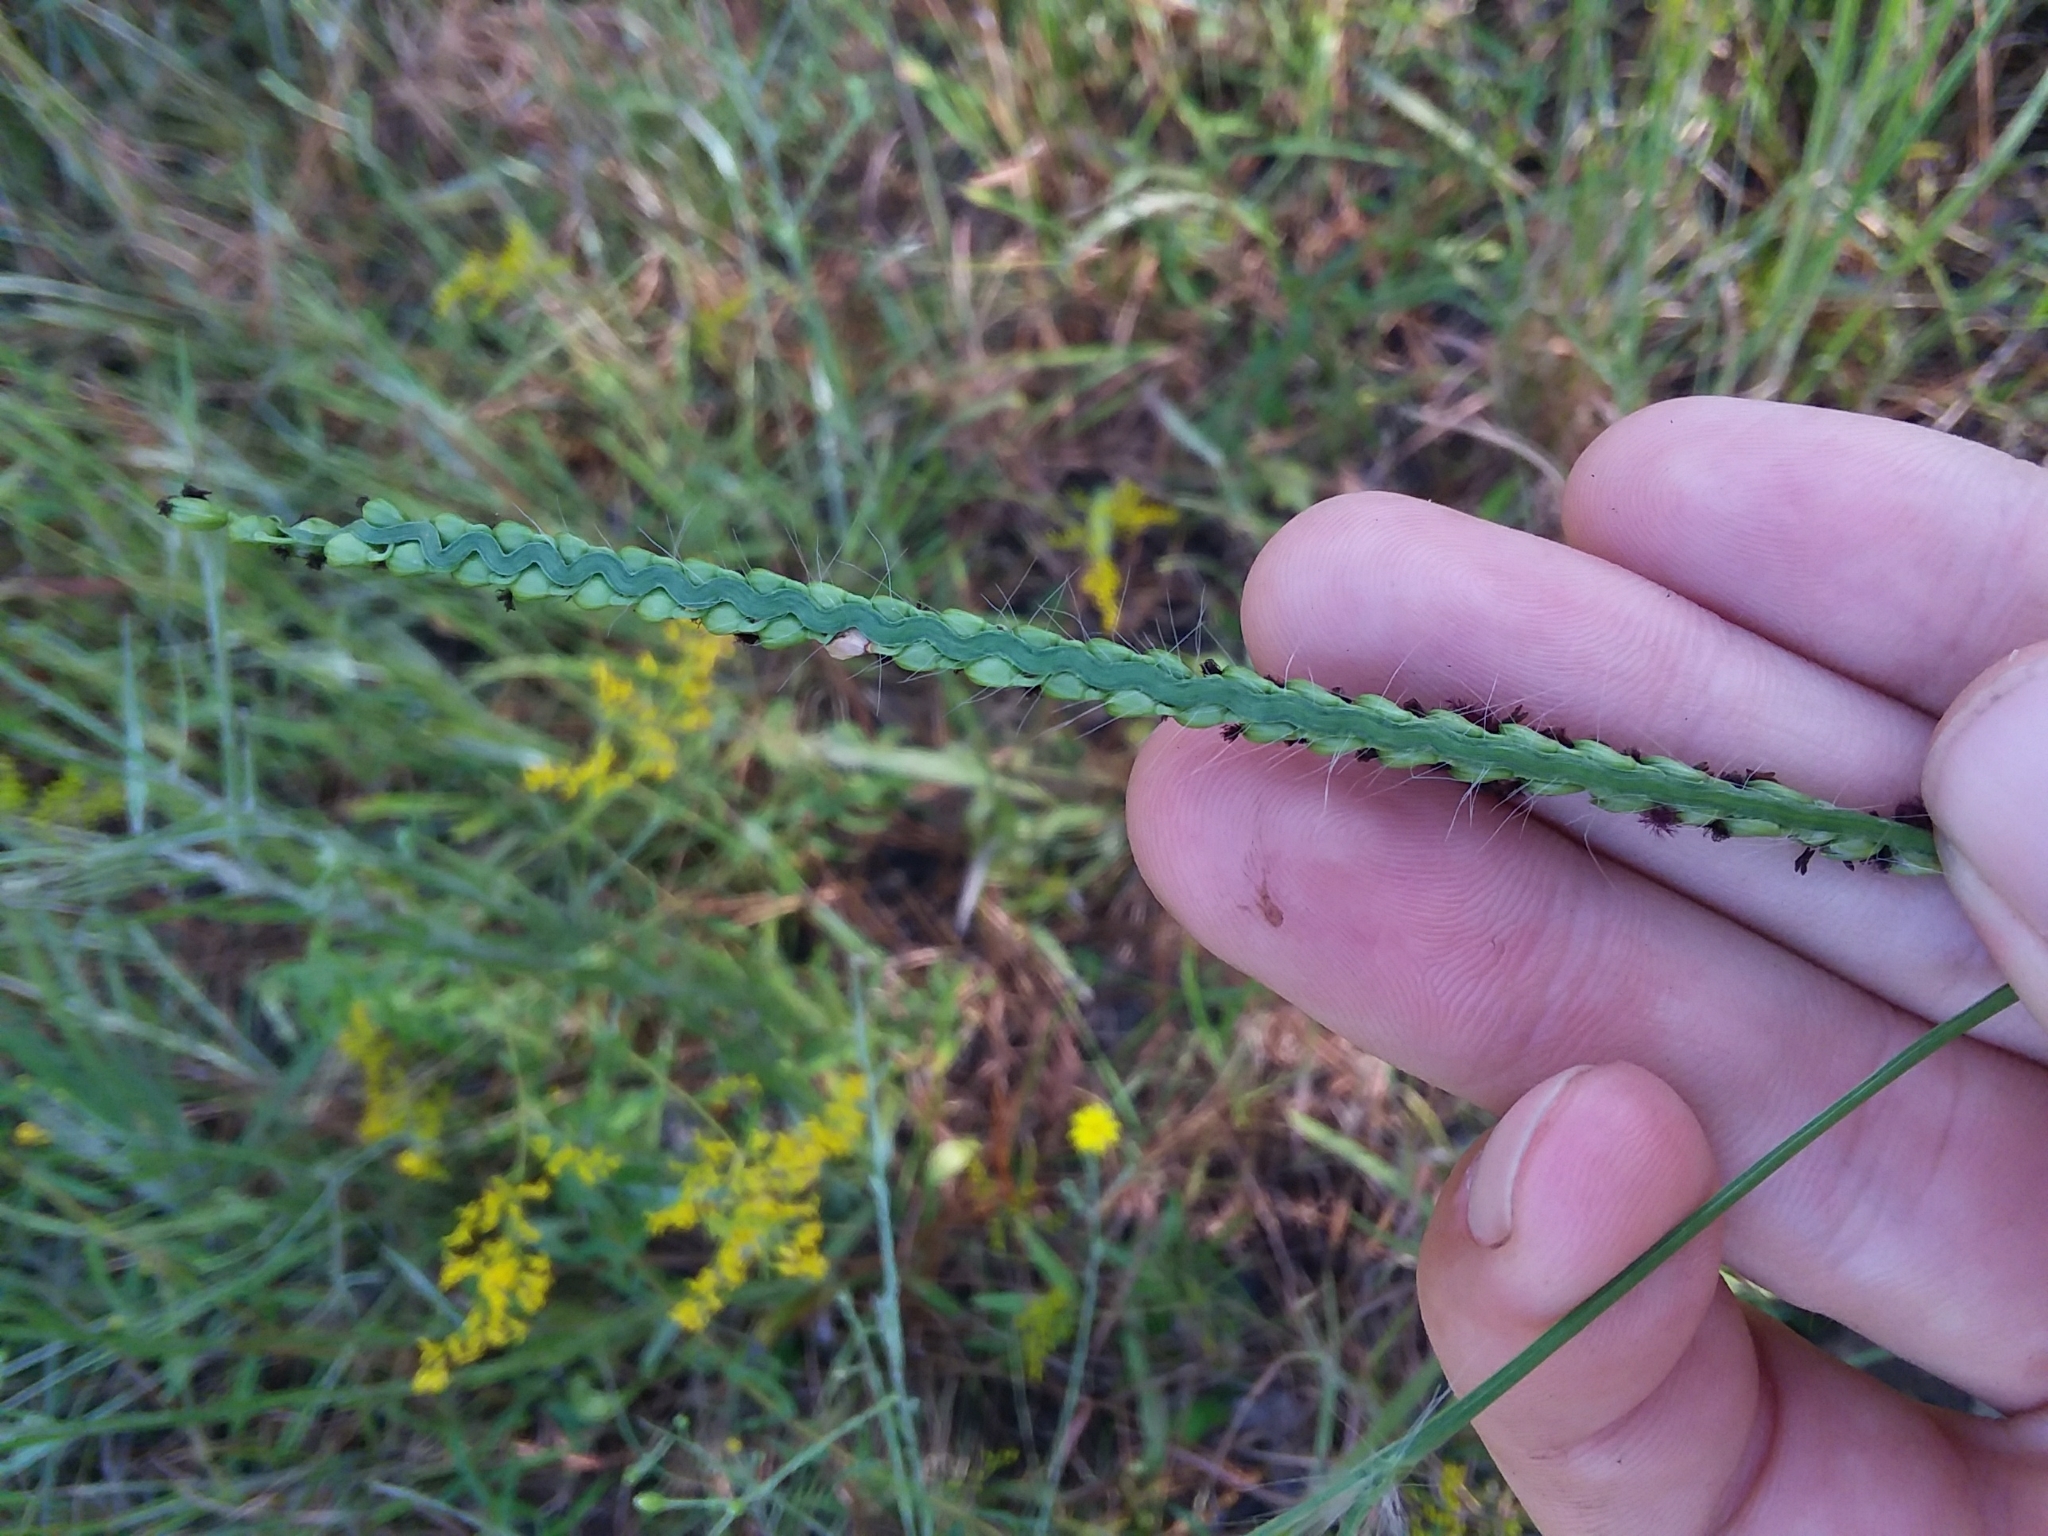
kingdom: Plantae
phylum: Tracheophyta
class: Liliopsida
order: Poales
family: Poaceae
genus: Paspalum
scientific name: Paspalum floridanum
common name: Florida paspalum
